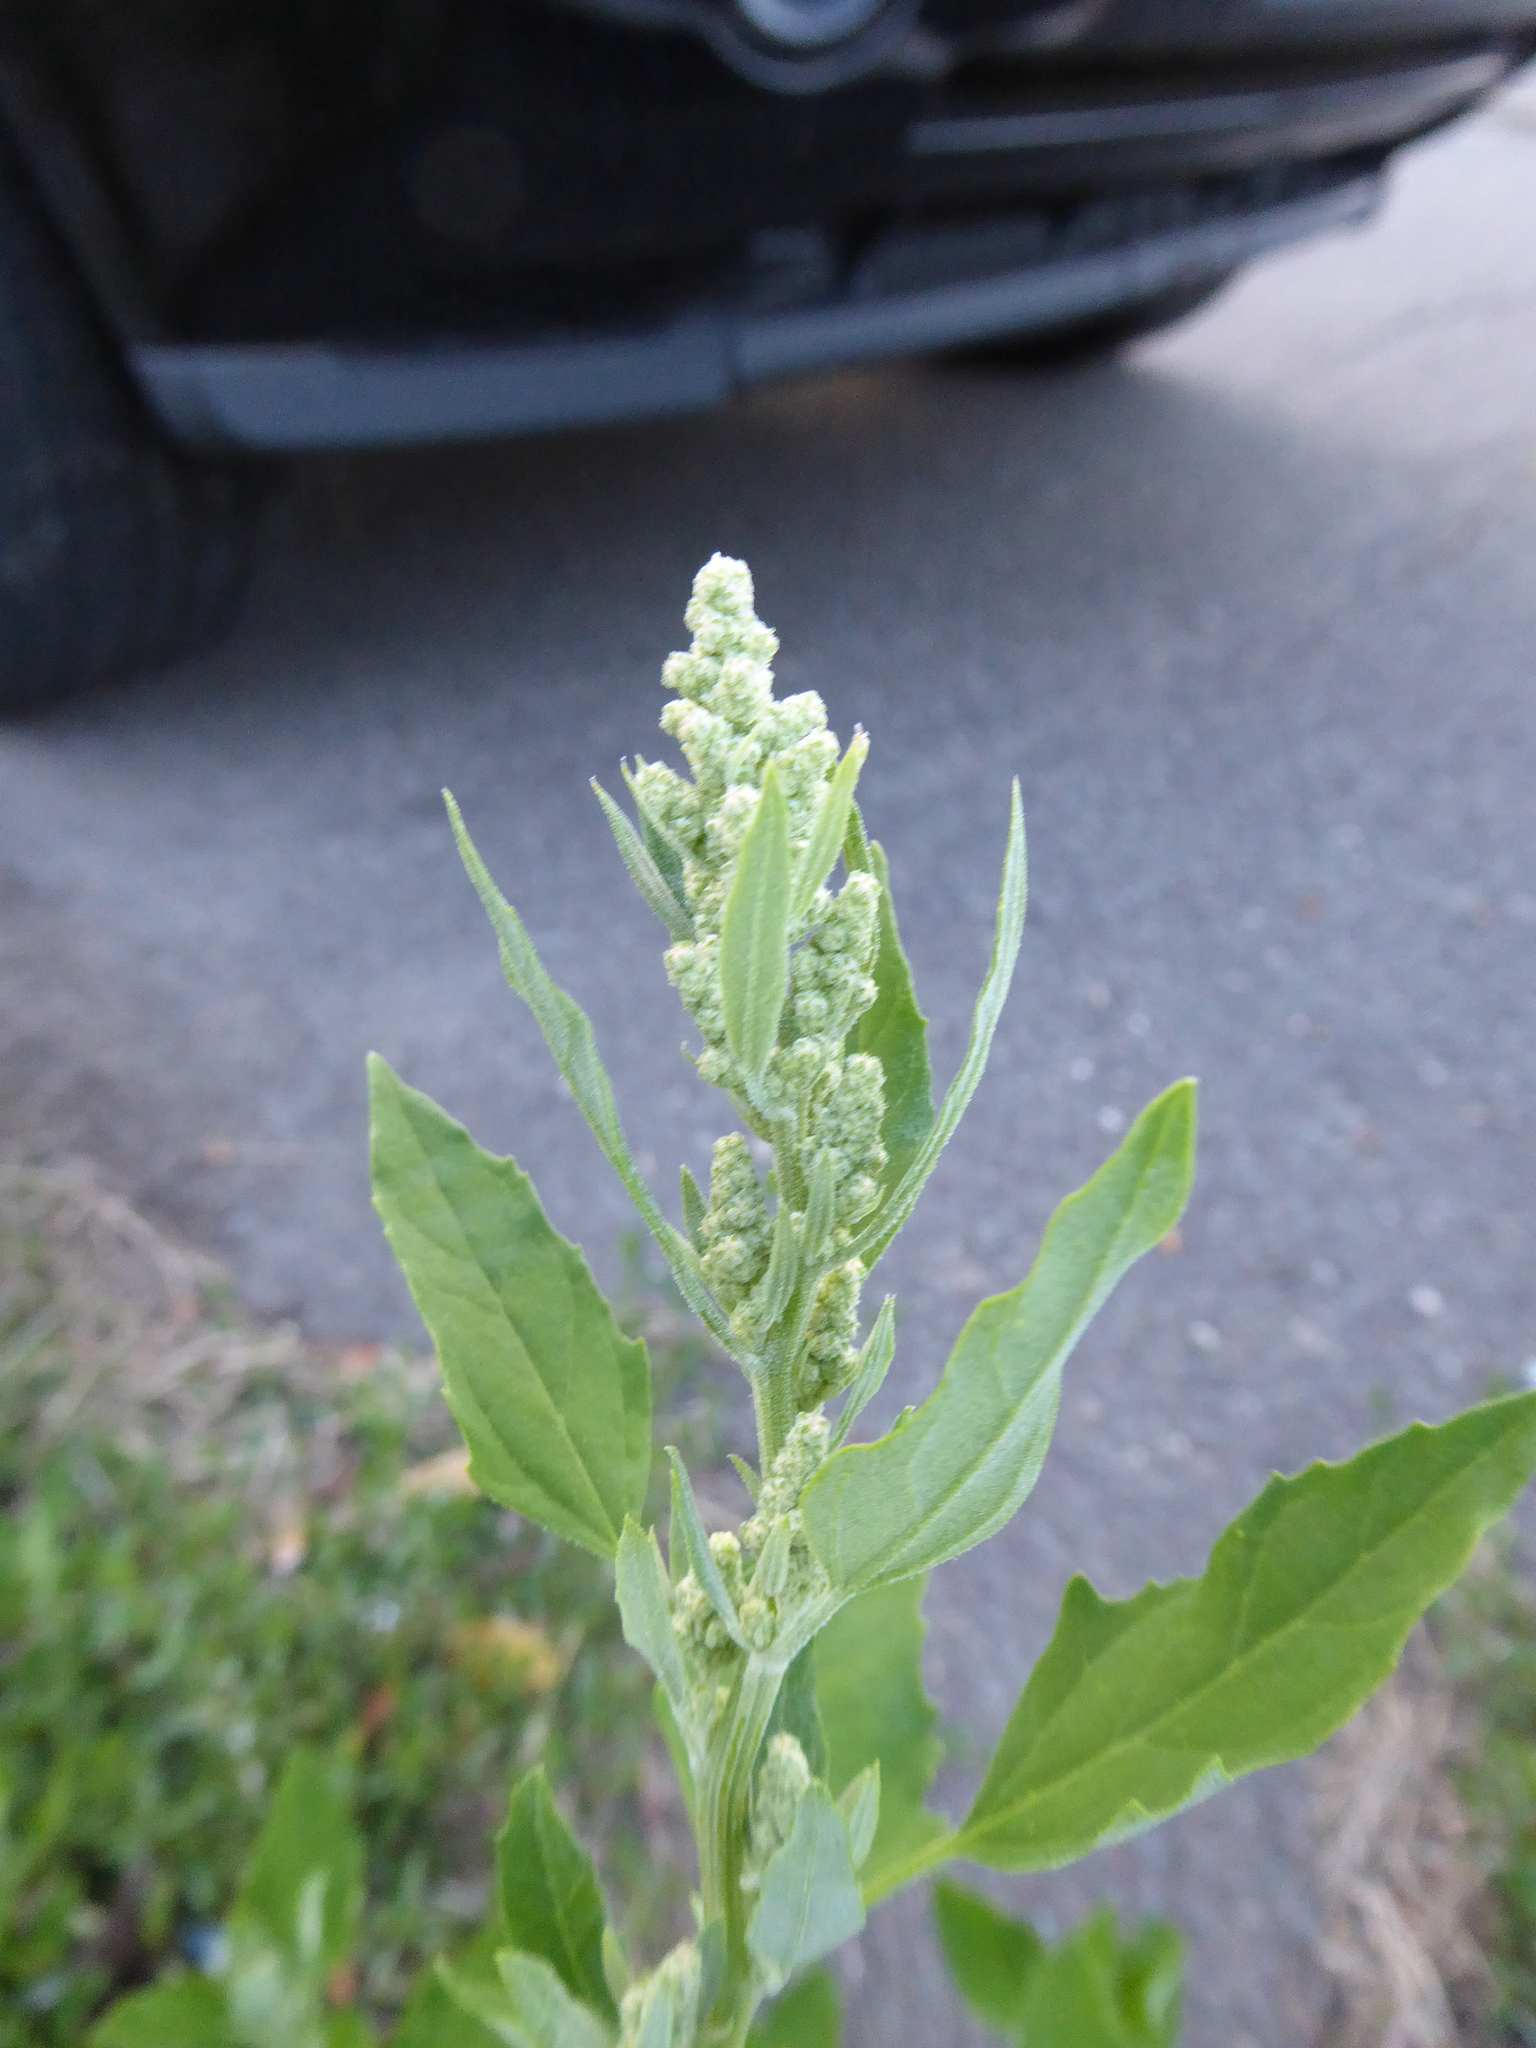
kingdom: Plantae
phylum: Tracheophyta
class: Magnoliopsida
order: Caryophyllales
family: Amaranthaceae
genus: Chenopodium
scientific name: Chenopodium album
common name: Fat-hen
